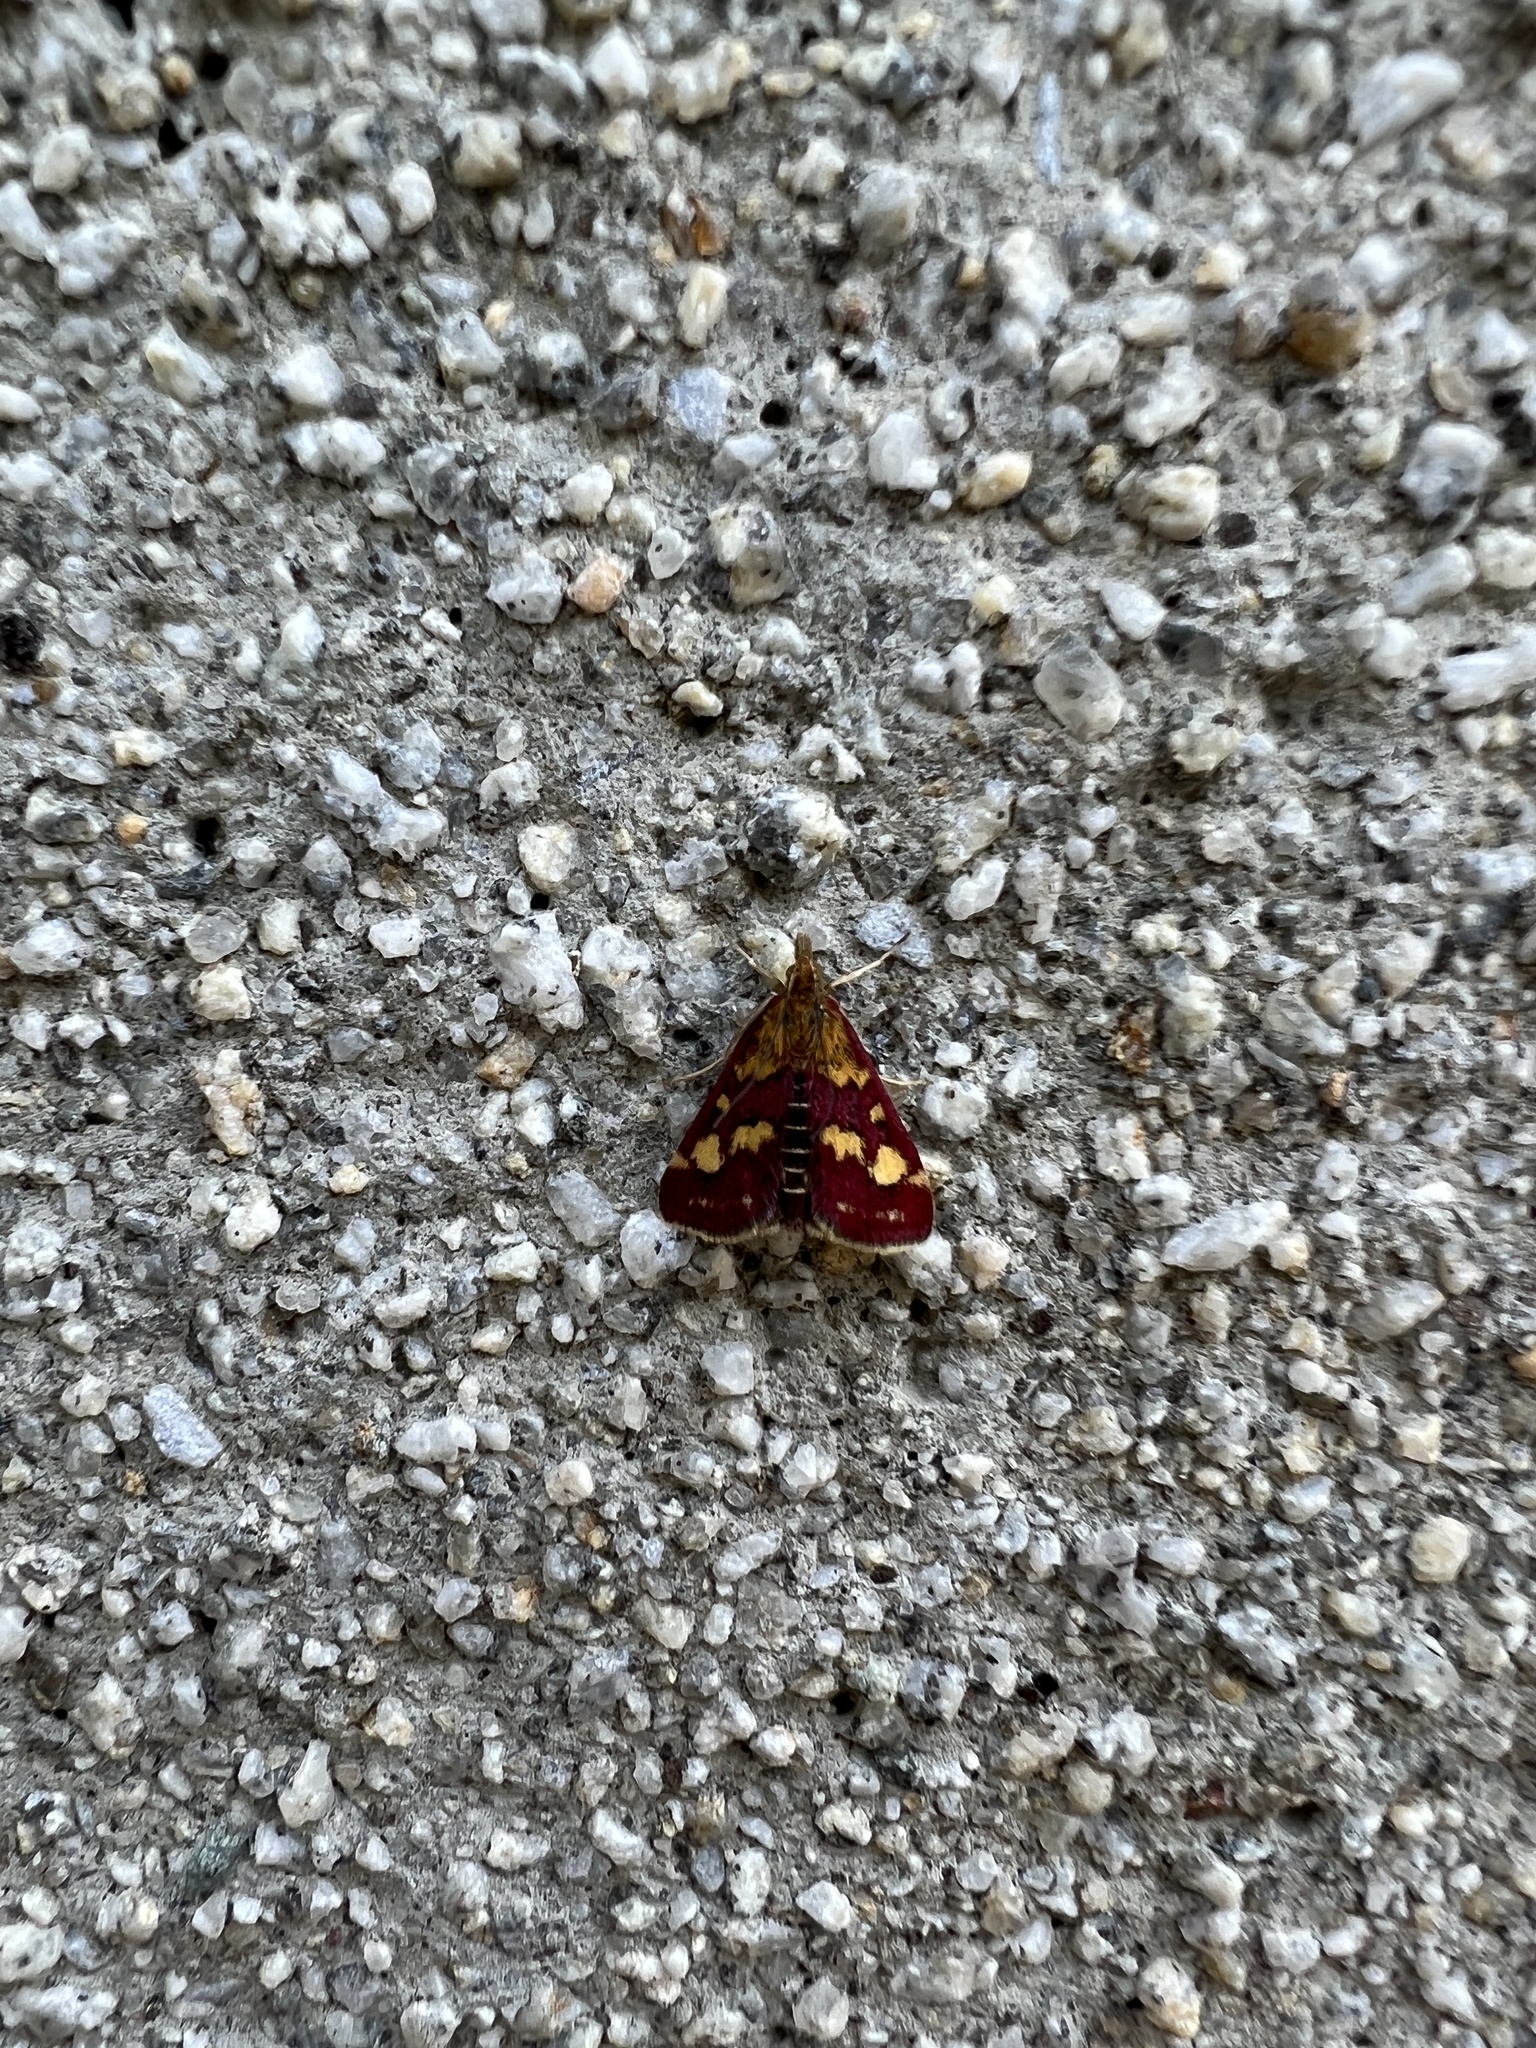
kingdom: Animalia
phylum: Arthropoda
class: Insecta
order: Lepidoptera
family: Crambidae
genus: Pyrausta
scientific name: Pyrausta purpuralis
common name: Common purple & gold
